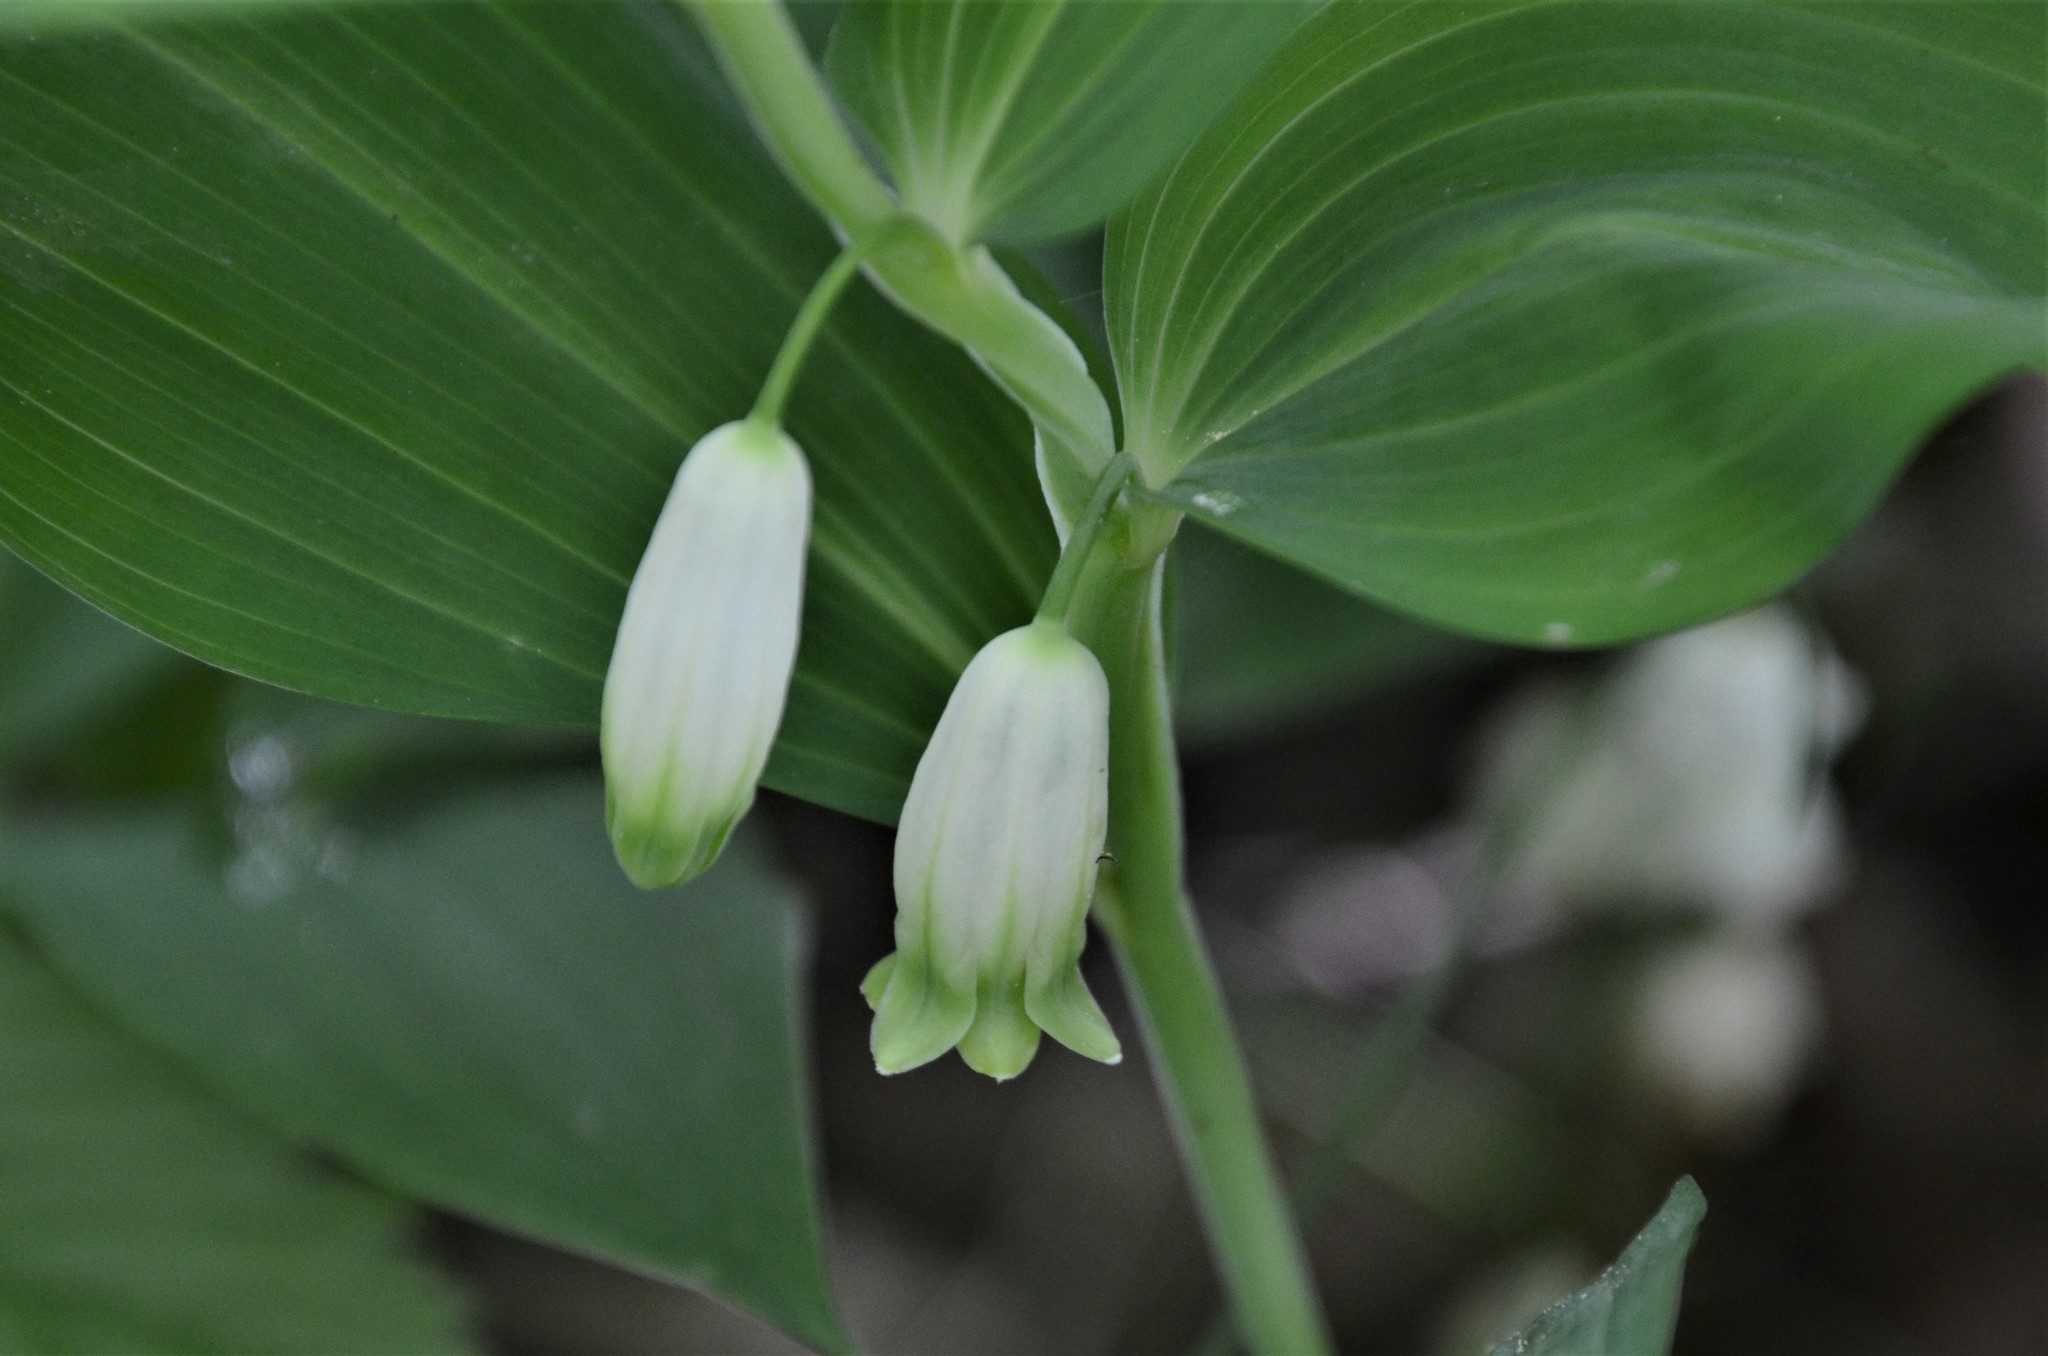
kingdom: Plantae
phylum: Tracheophyta
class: Liliopsida
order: Asparagales
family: Asparagaceae
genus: Polygonatum
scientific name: Polygonatum odoratum
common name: Angular solomon's-seal
